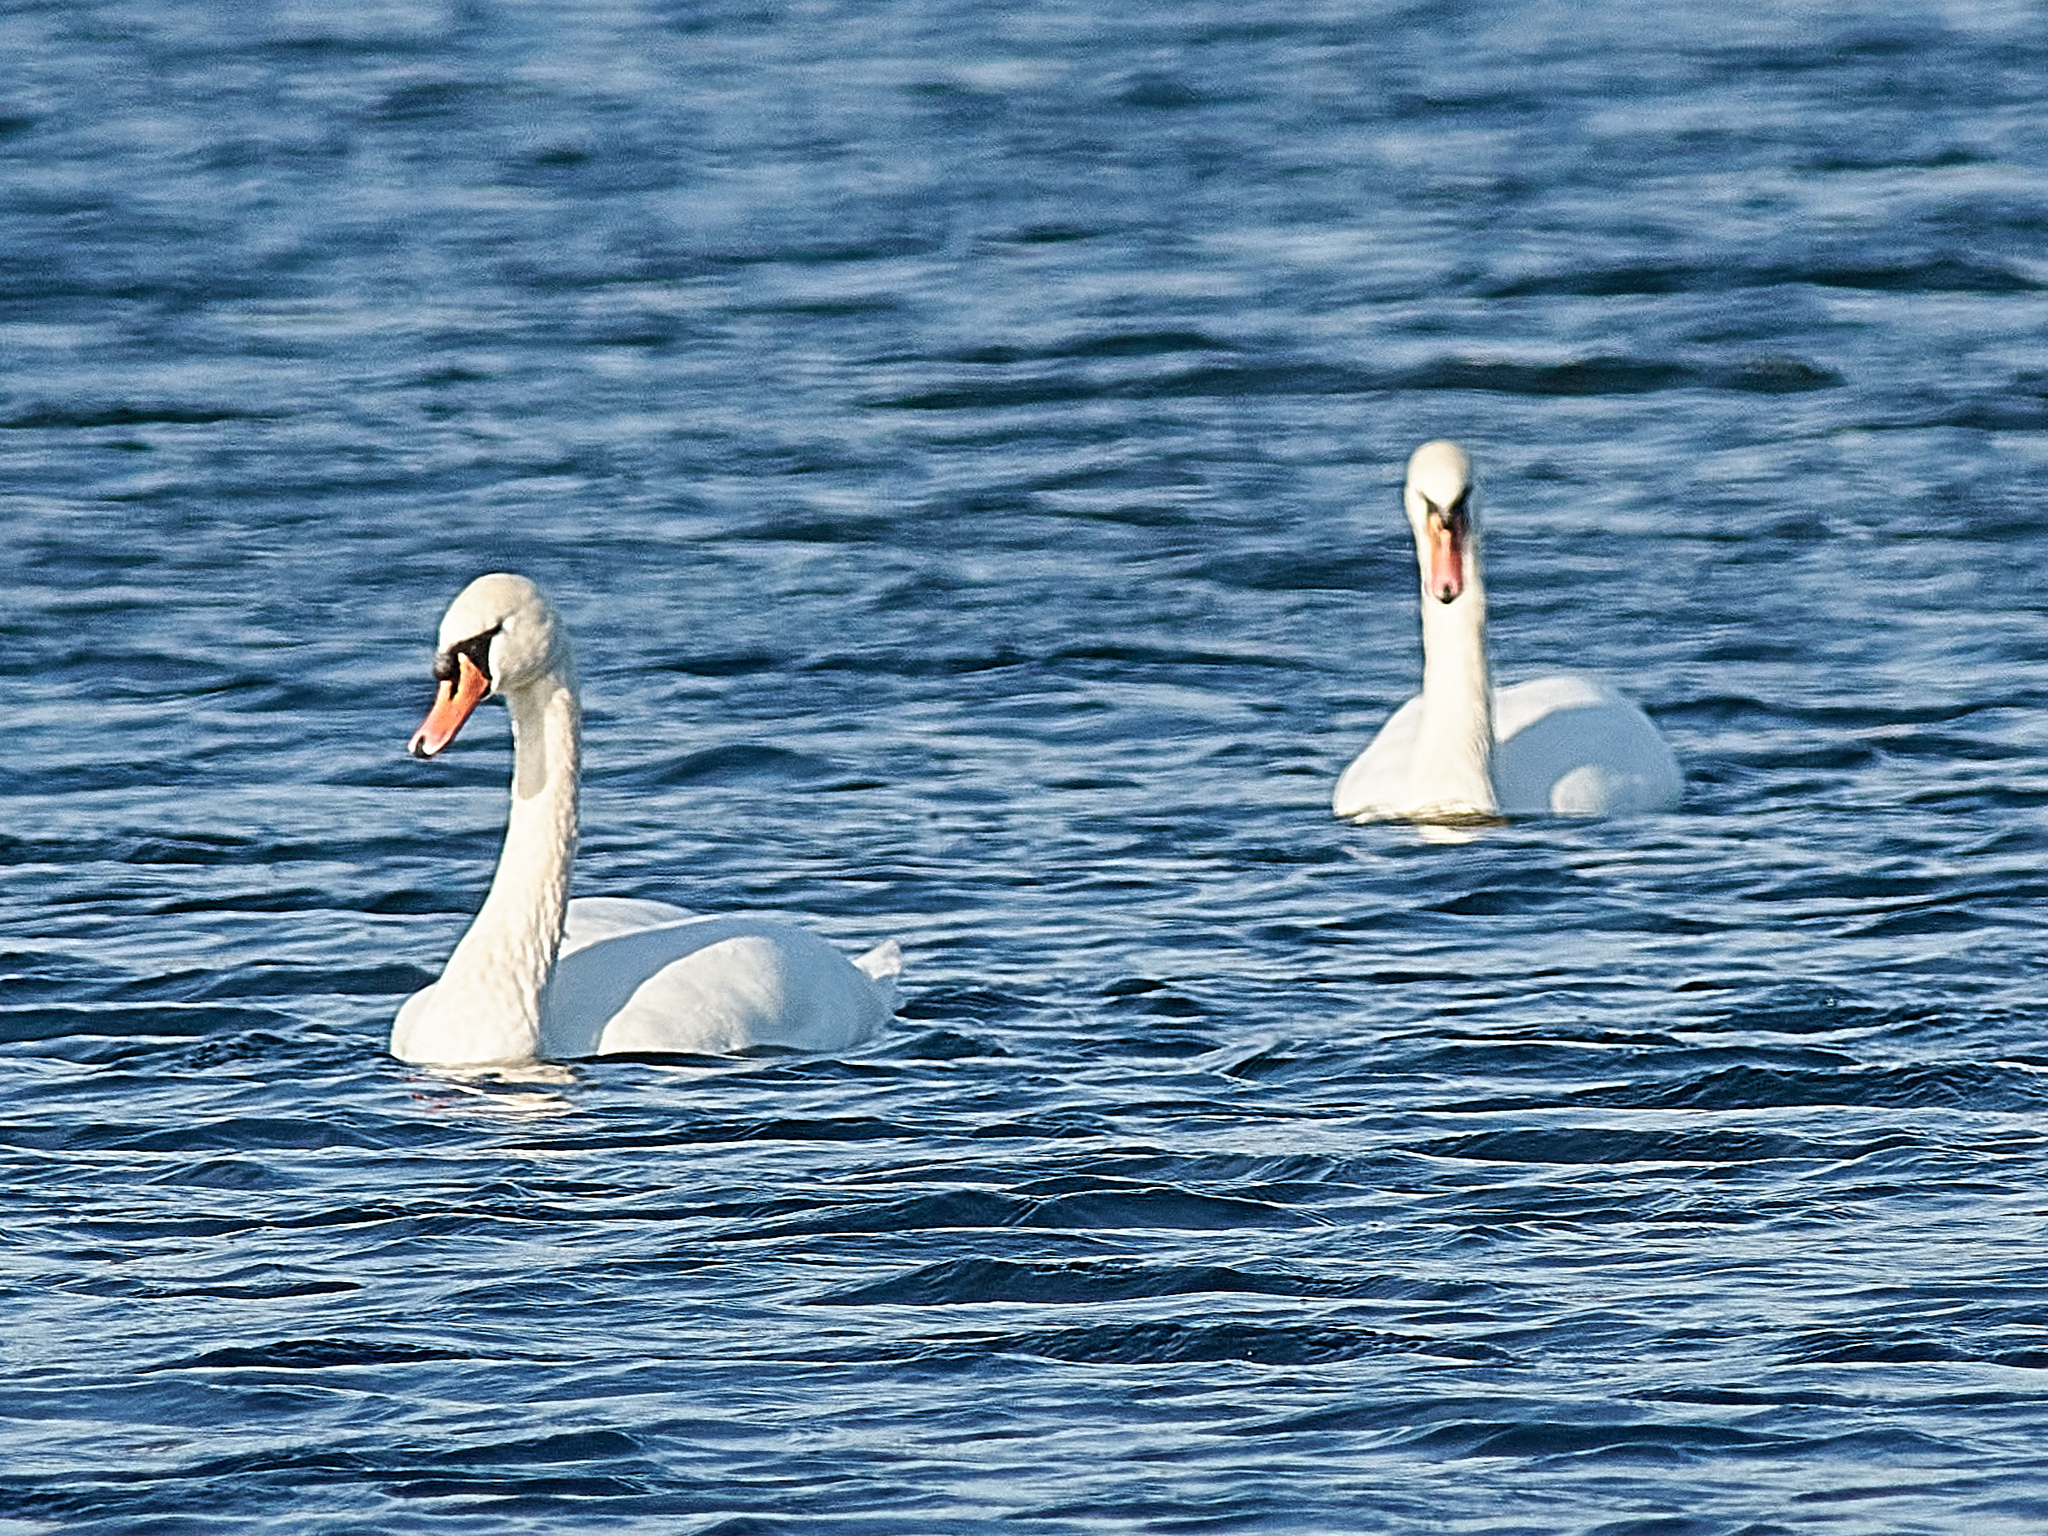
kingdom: Animalia
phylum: Chordata
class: Aves
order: Anseriformes
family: Anatidae
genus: Cygnus
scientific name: Cygnus olor
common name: Mute swan
